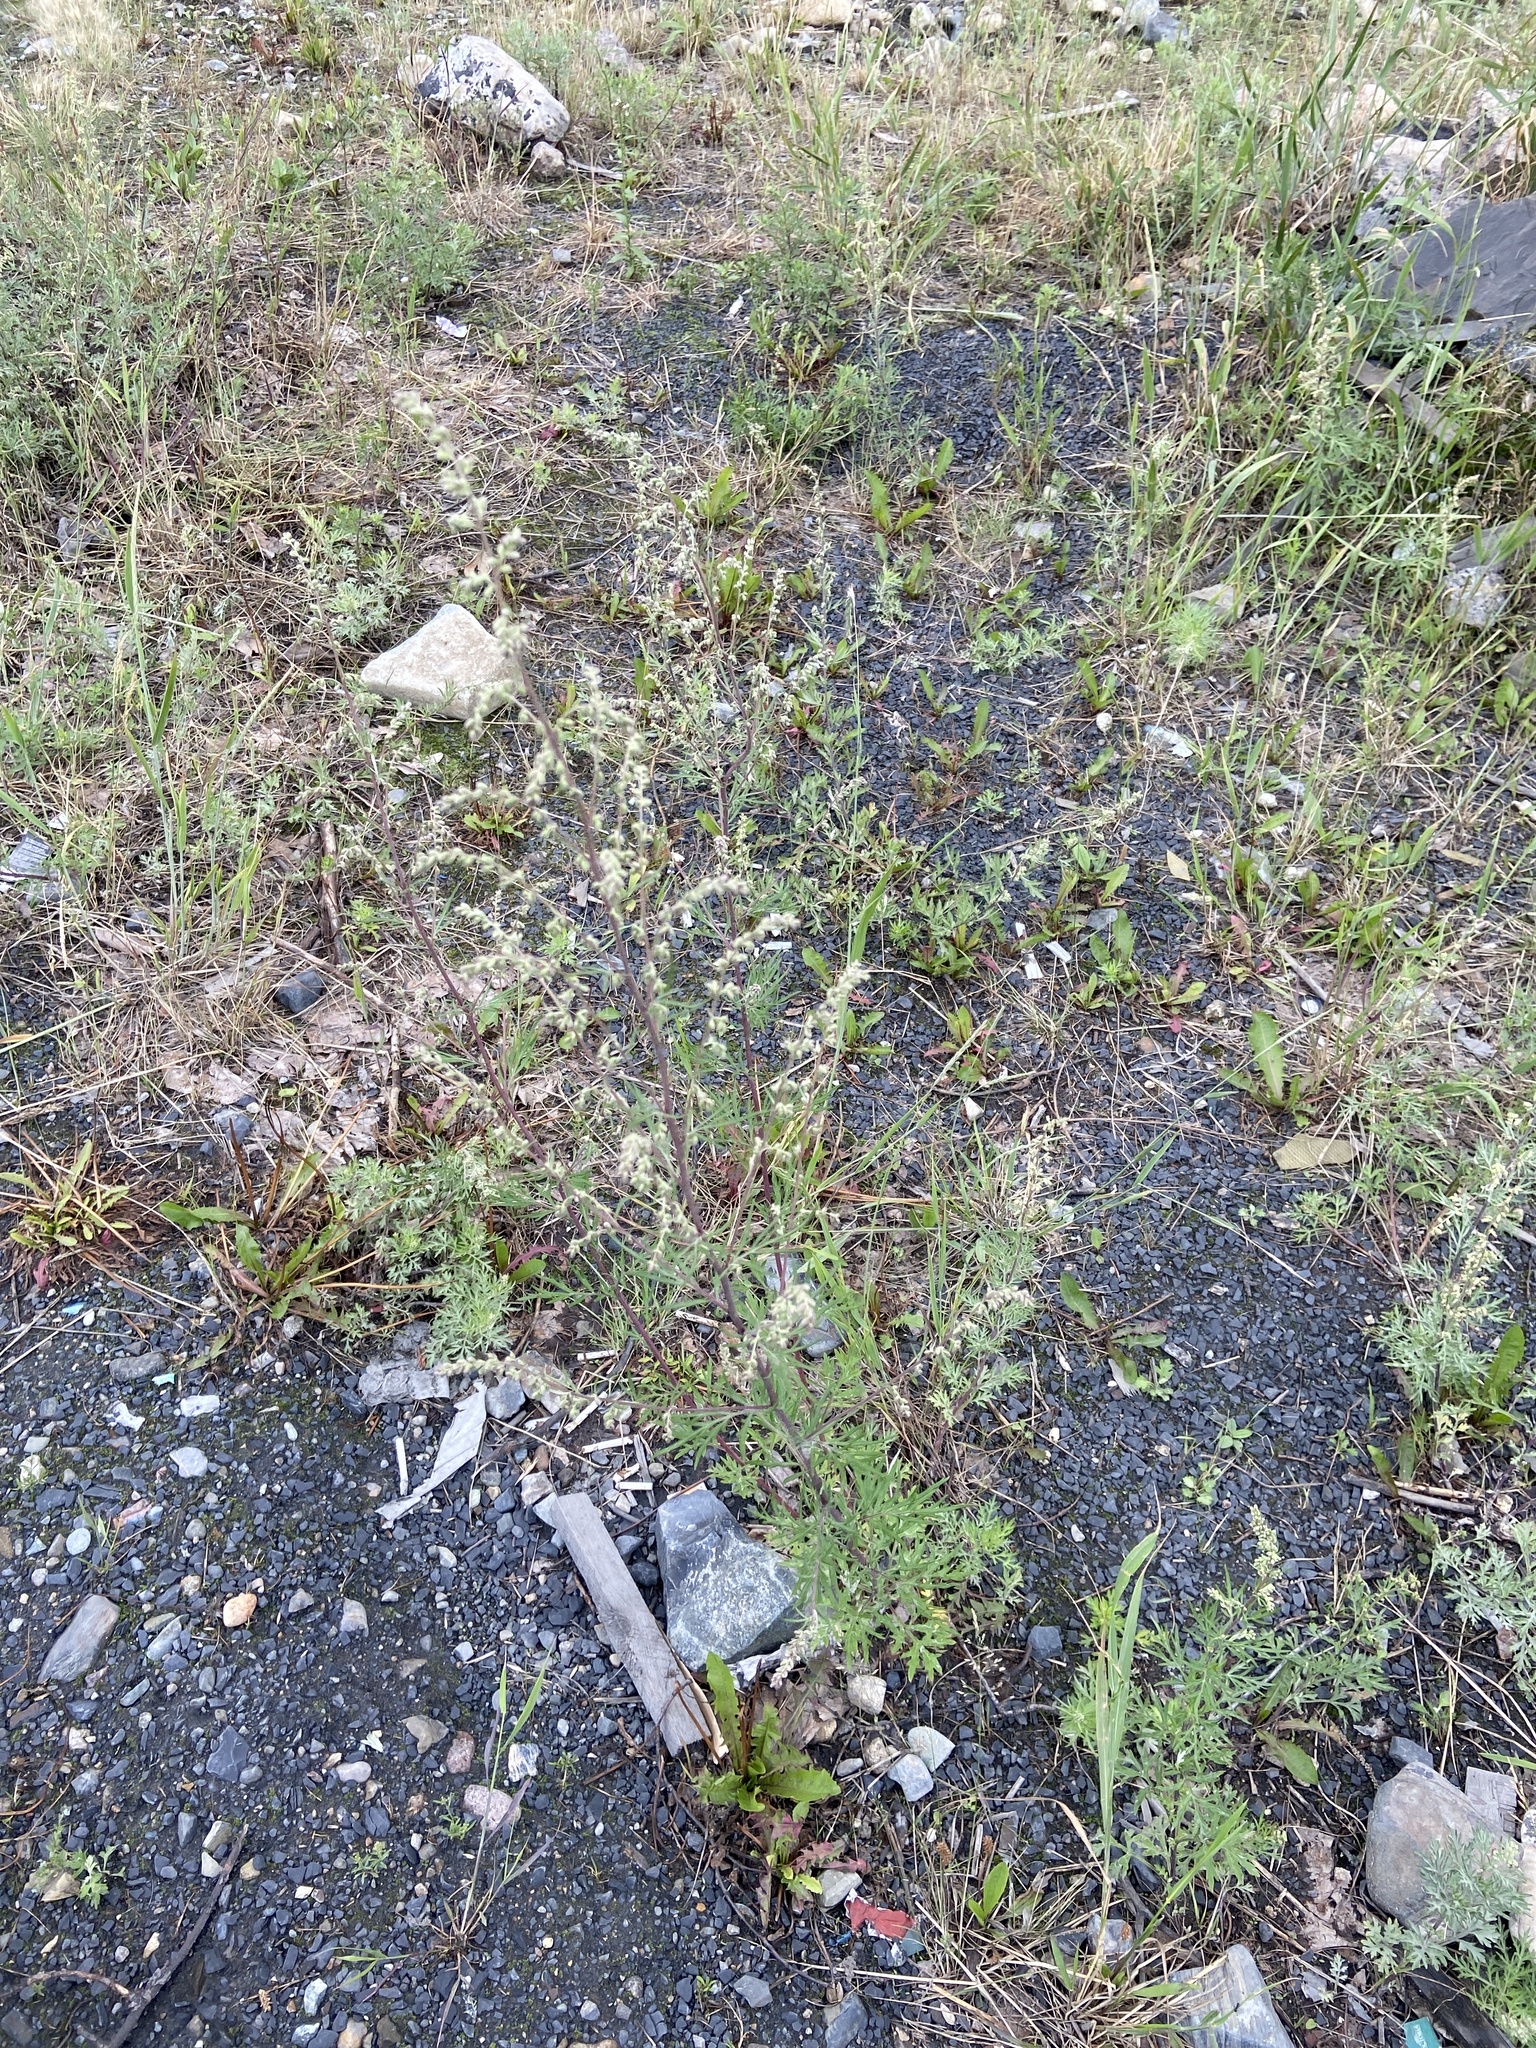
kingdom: Plantae
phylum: Tracheophyta
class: Magnoliopsida
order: Asterales
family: Asteraceae
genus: Artemisia
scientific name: Artemisia vulgaris
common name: Mugwort
